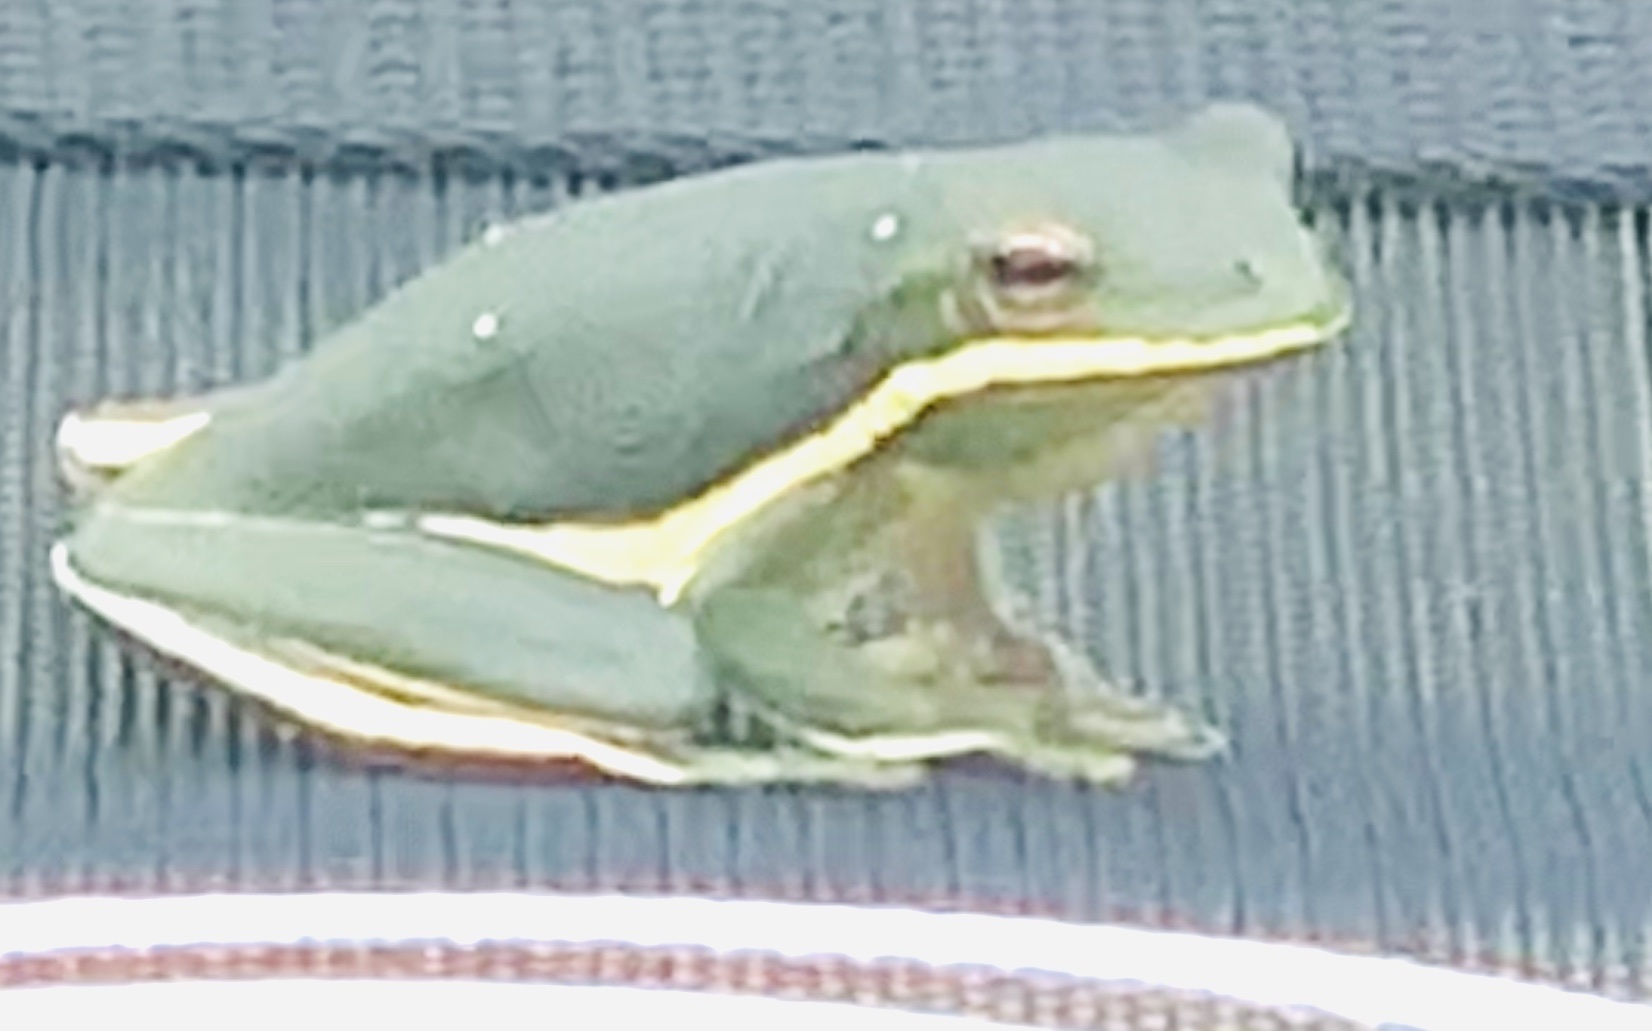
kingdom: Animalia
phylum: Chordata
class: Amphibia
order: Anura
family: Hylidae
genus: Dryophytes
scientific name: Dryophytes cinereus
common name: Green treefrog
